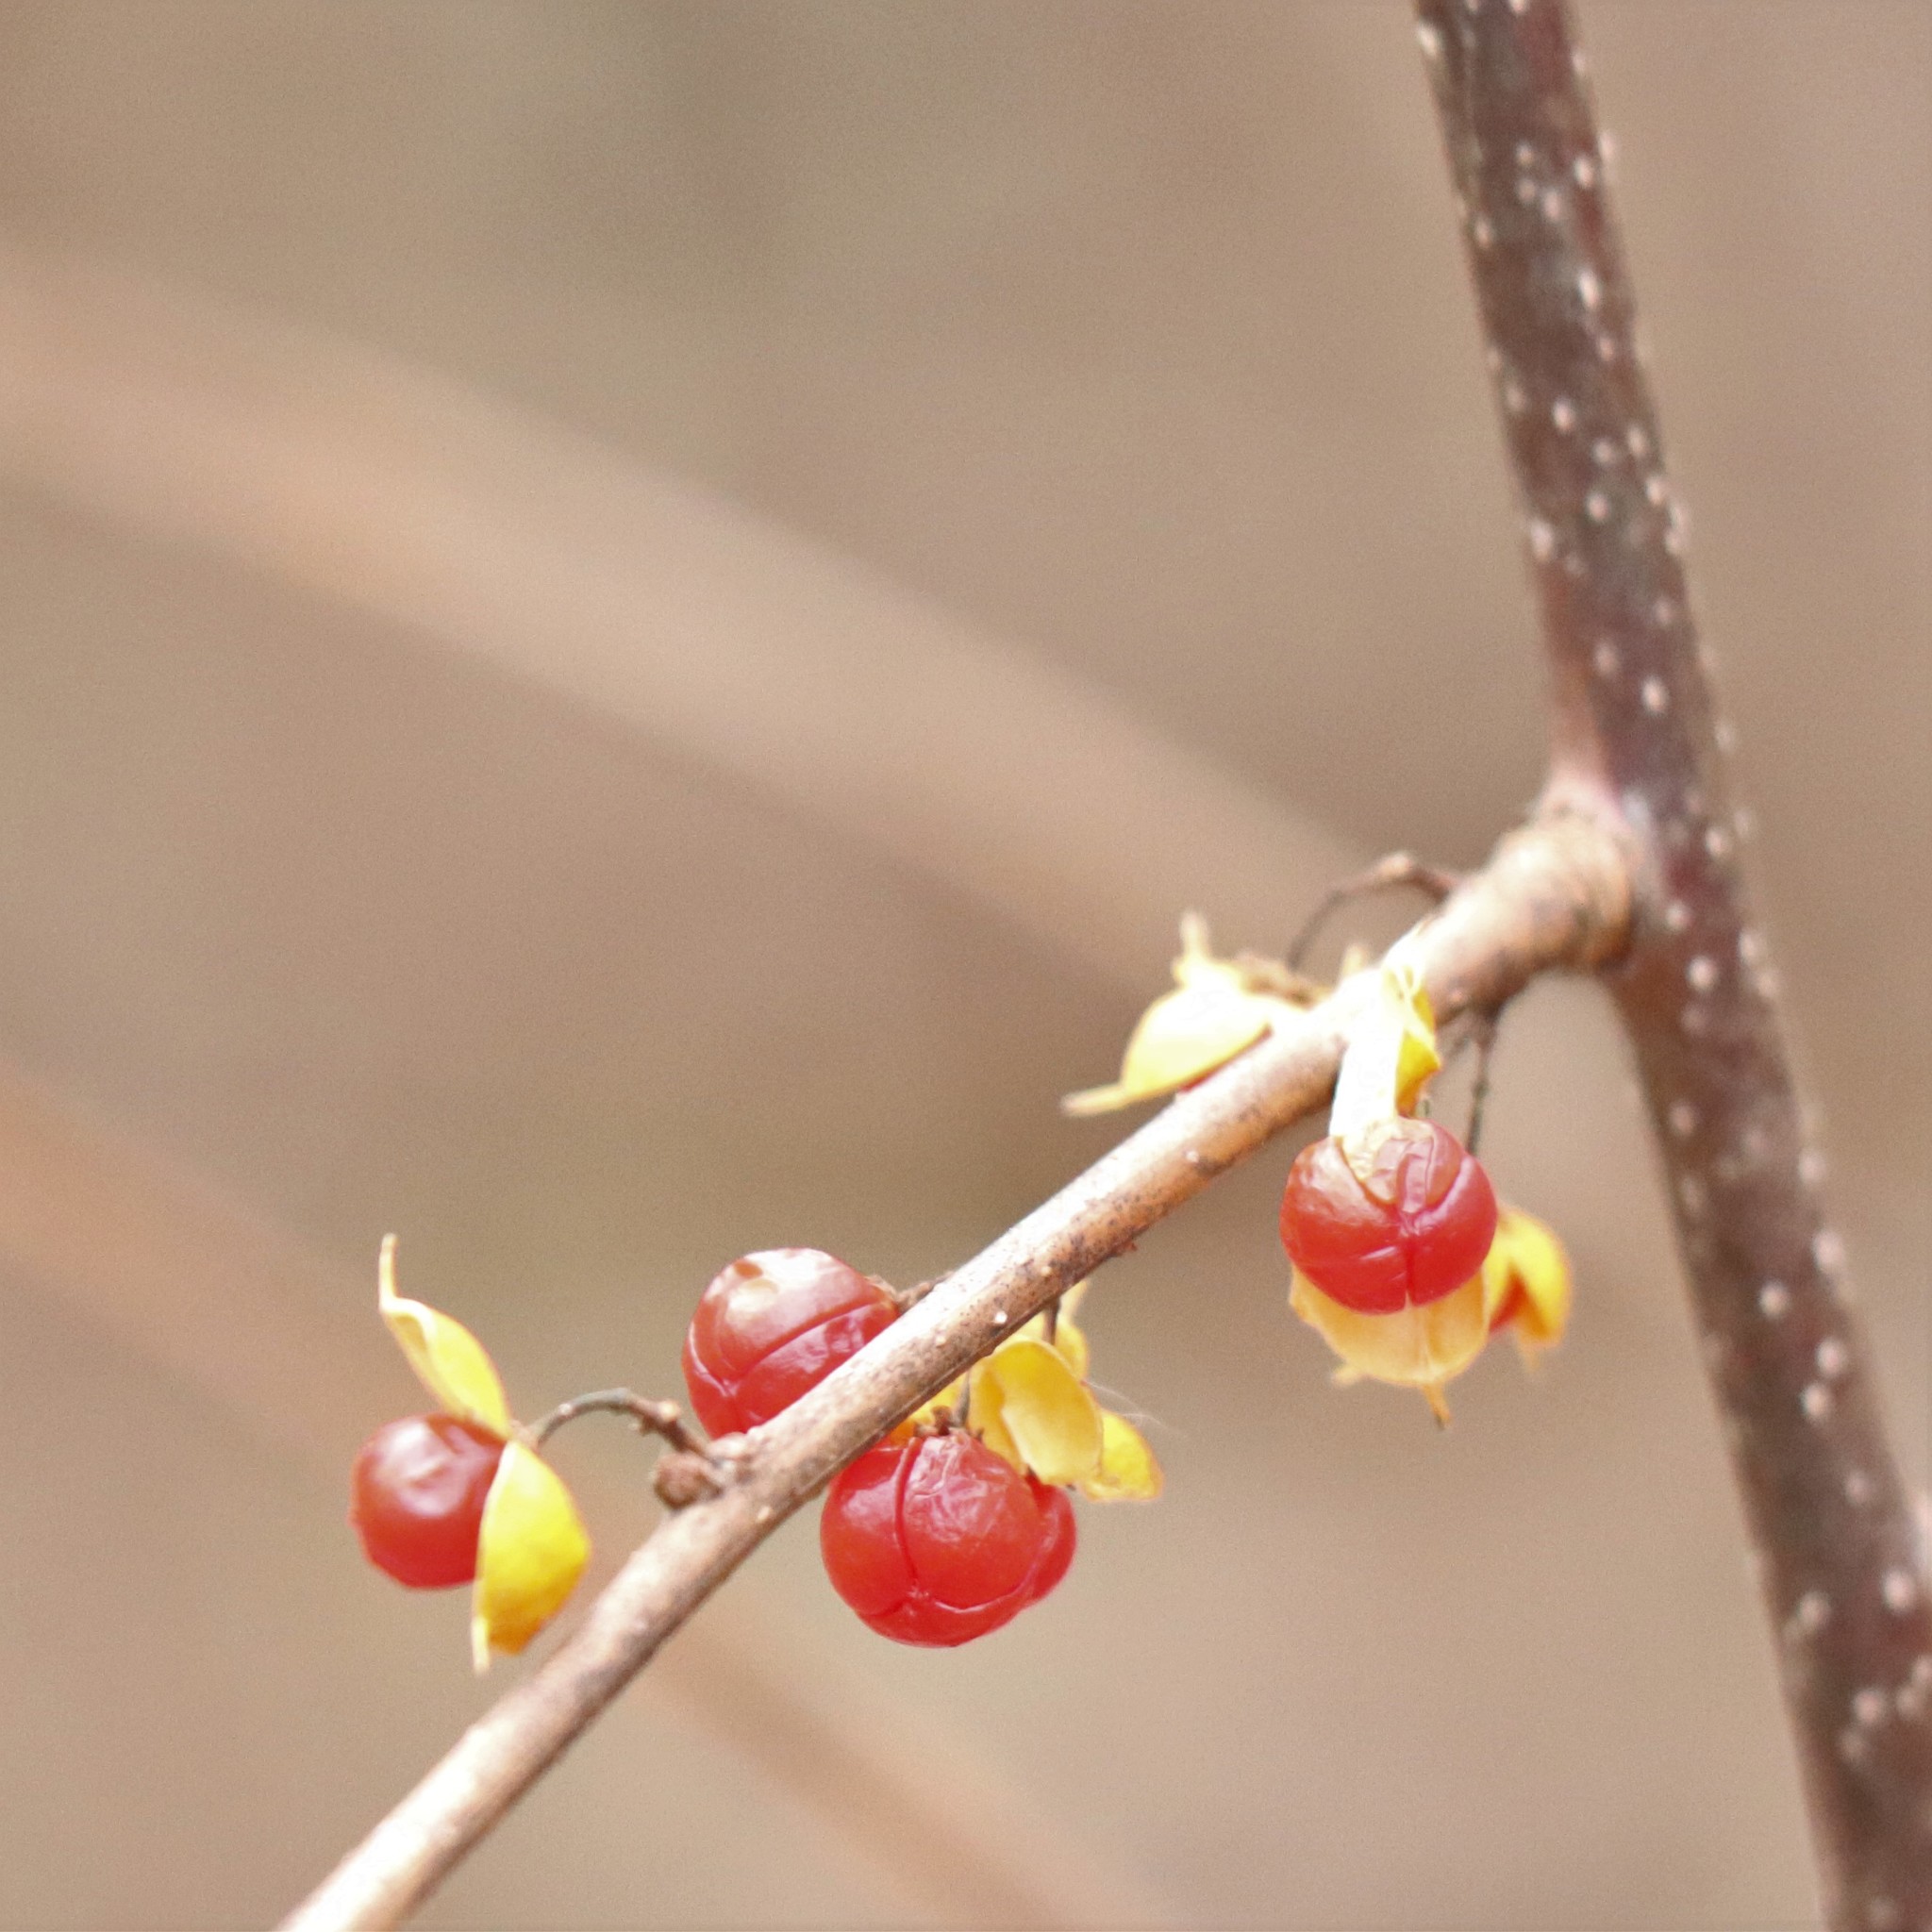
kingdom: Plantae
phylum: Tracheophyta
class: Magnoliopsida
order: Celastrales
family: Celastraceae
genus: Celastrus
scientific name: Celastrus orbiculatus
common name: Oriental bittersweet
